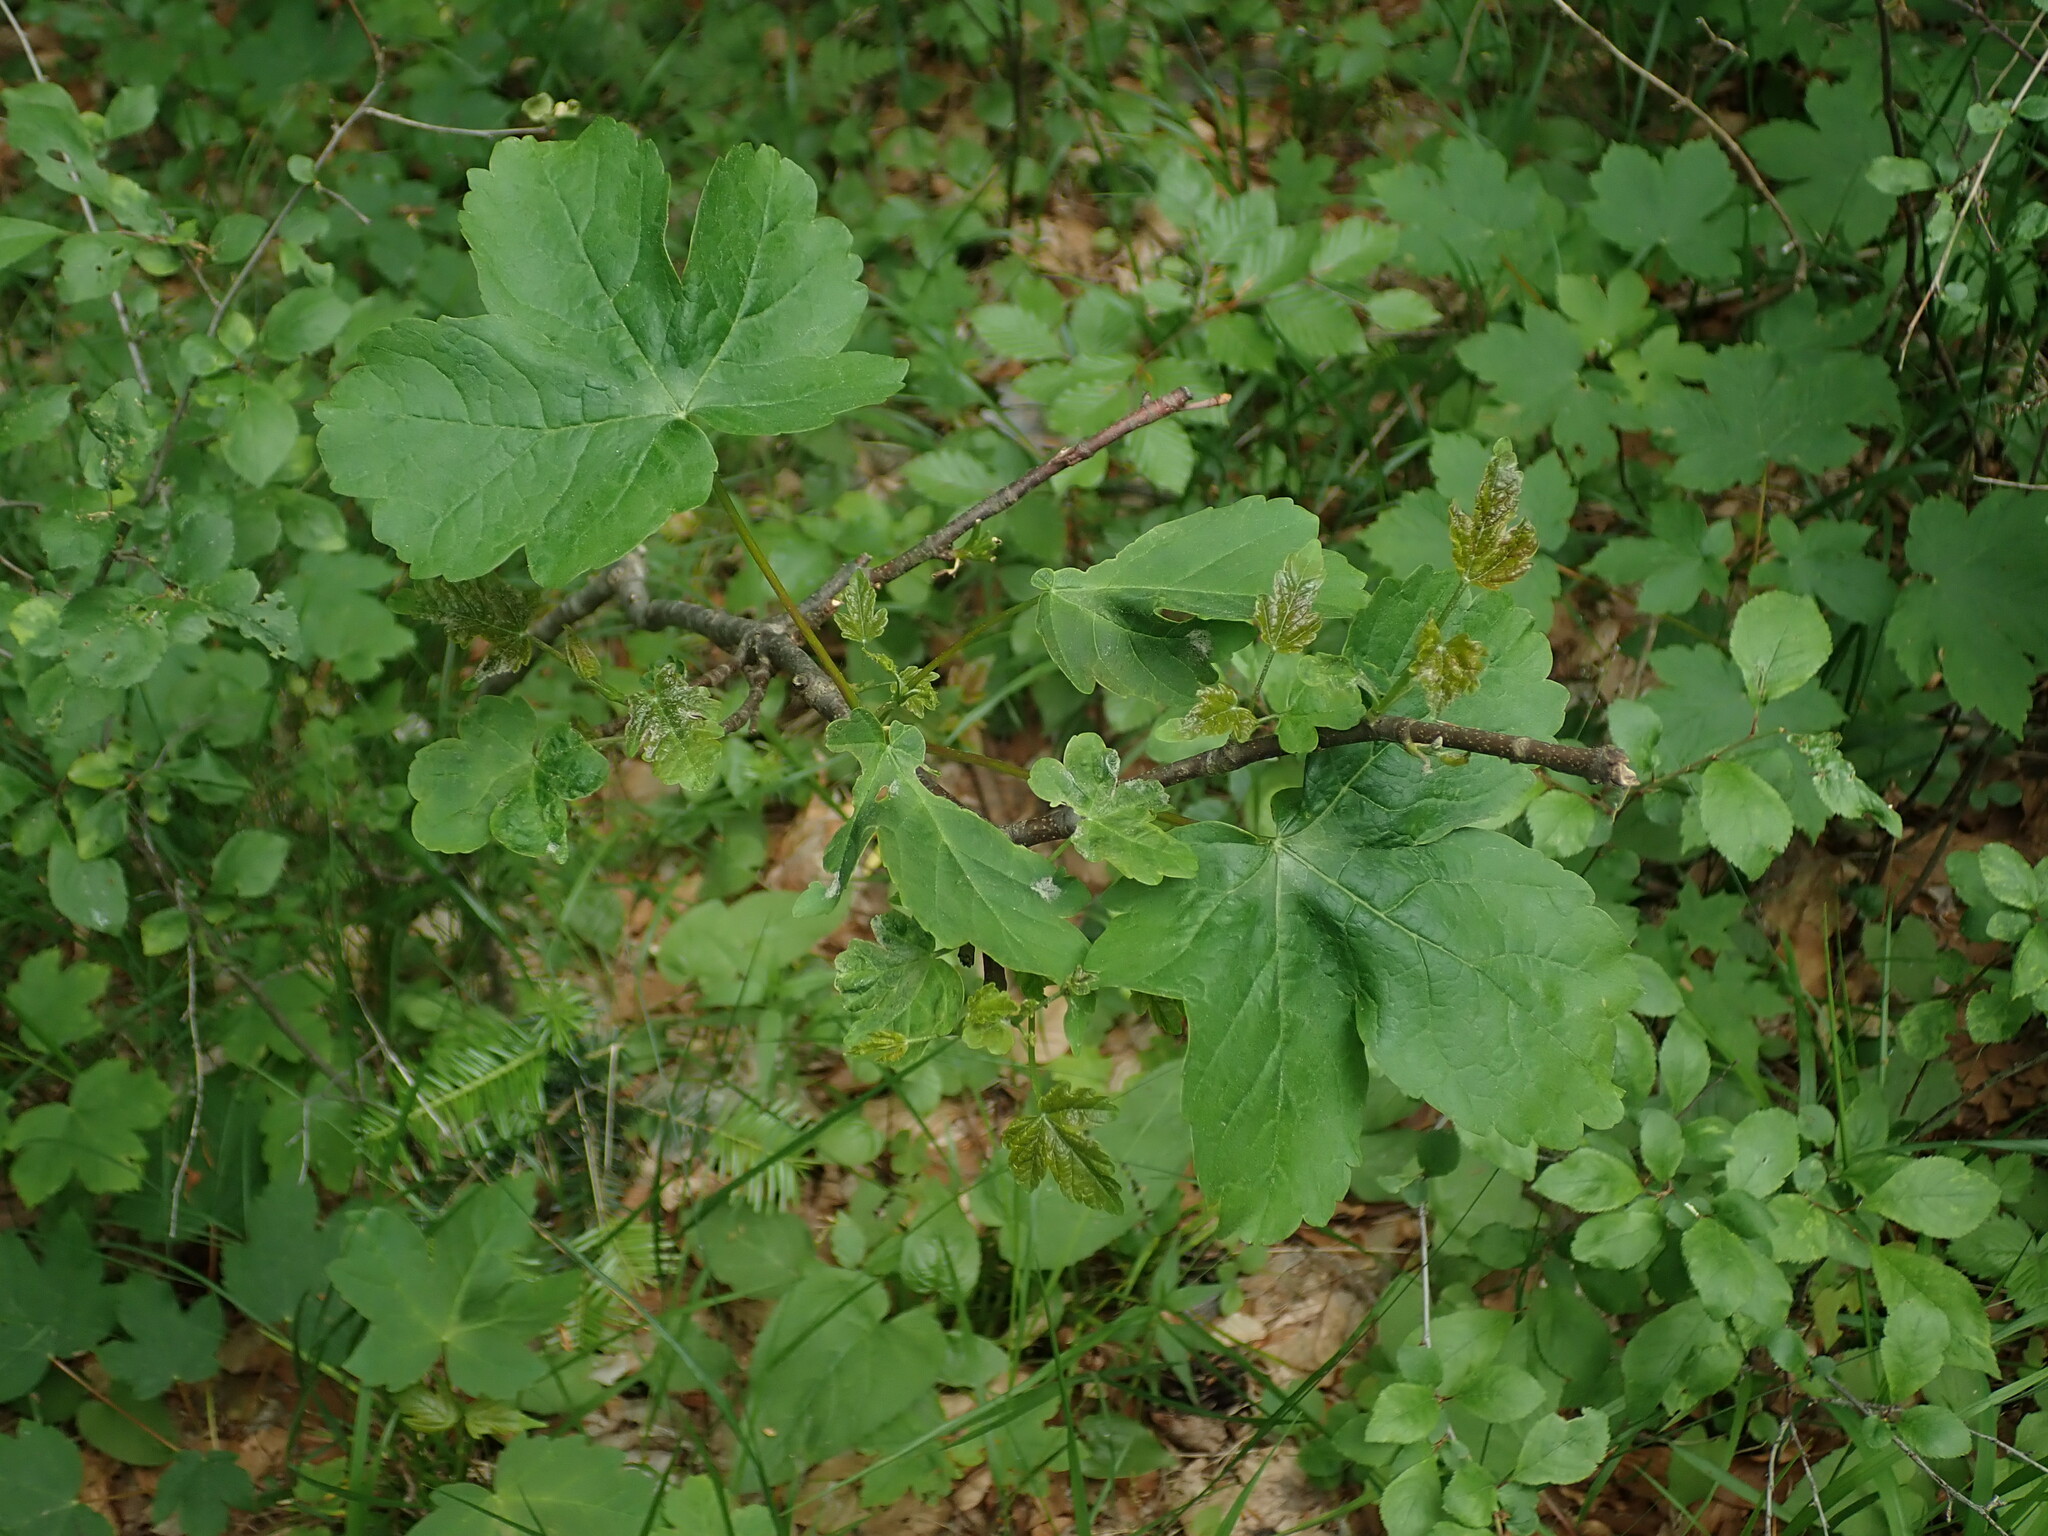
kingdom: Plantae
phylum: Tracheophyta
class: Magnoliopsida
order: Sapindales
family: Sapindaceae
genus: Acer
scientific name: Acer pseudoplatanus
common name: Sycamore
